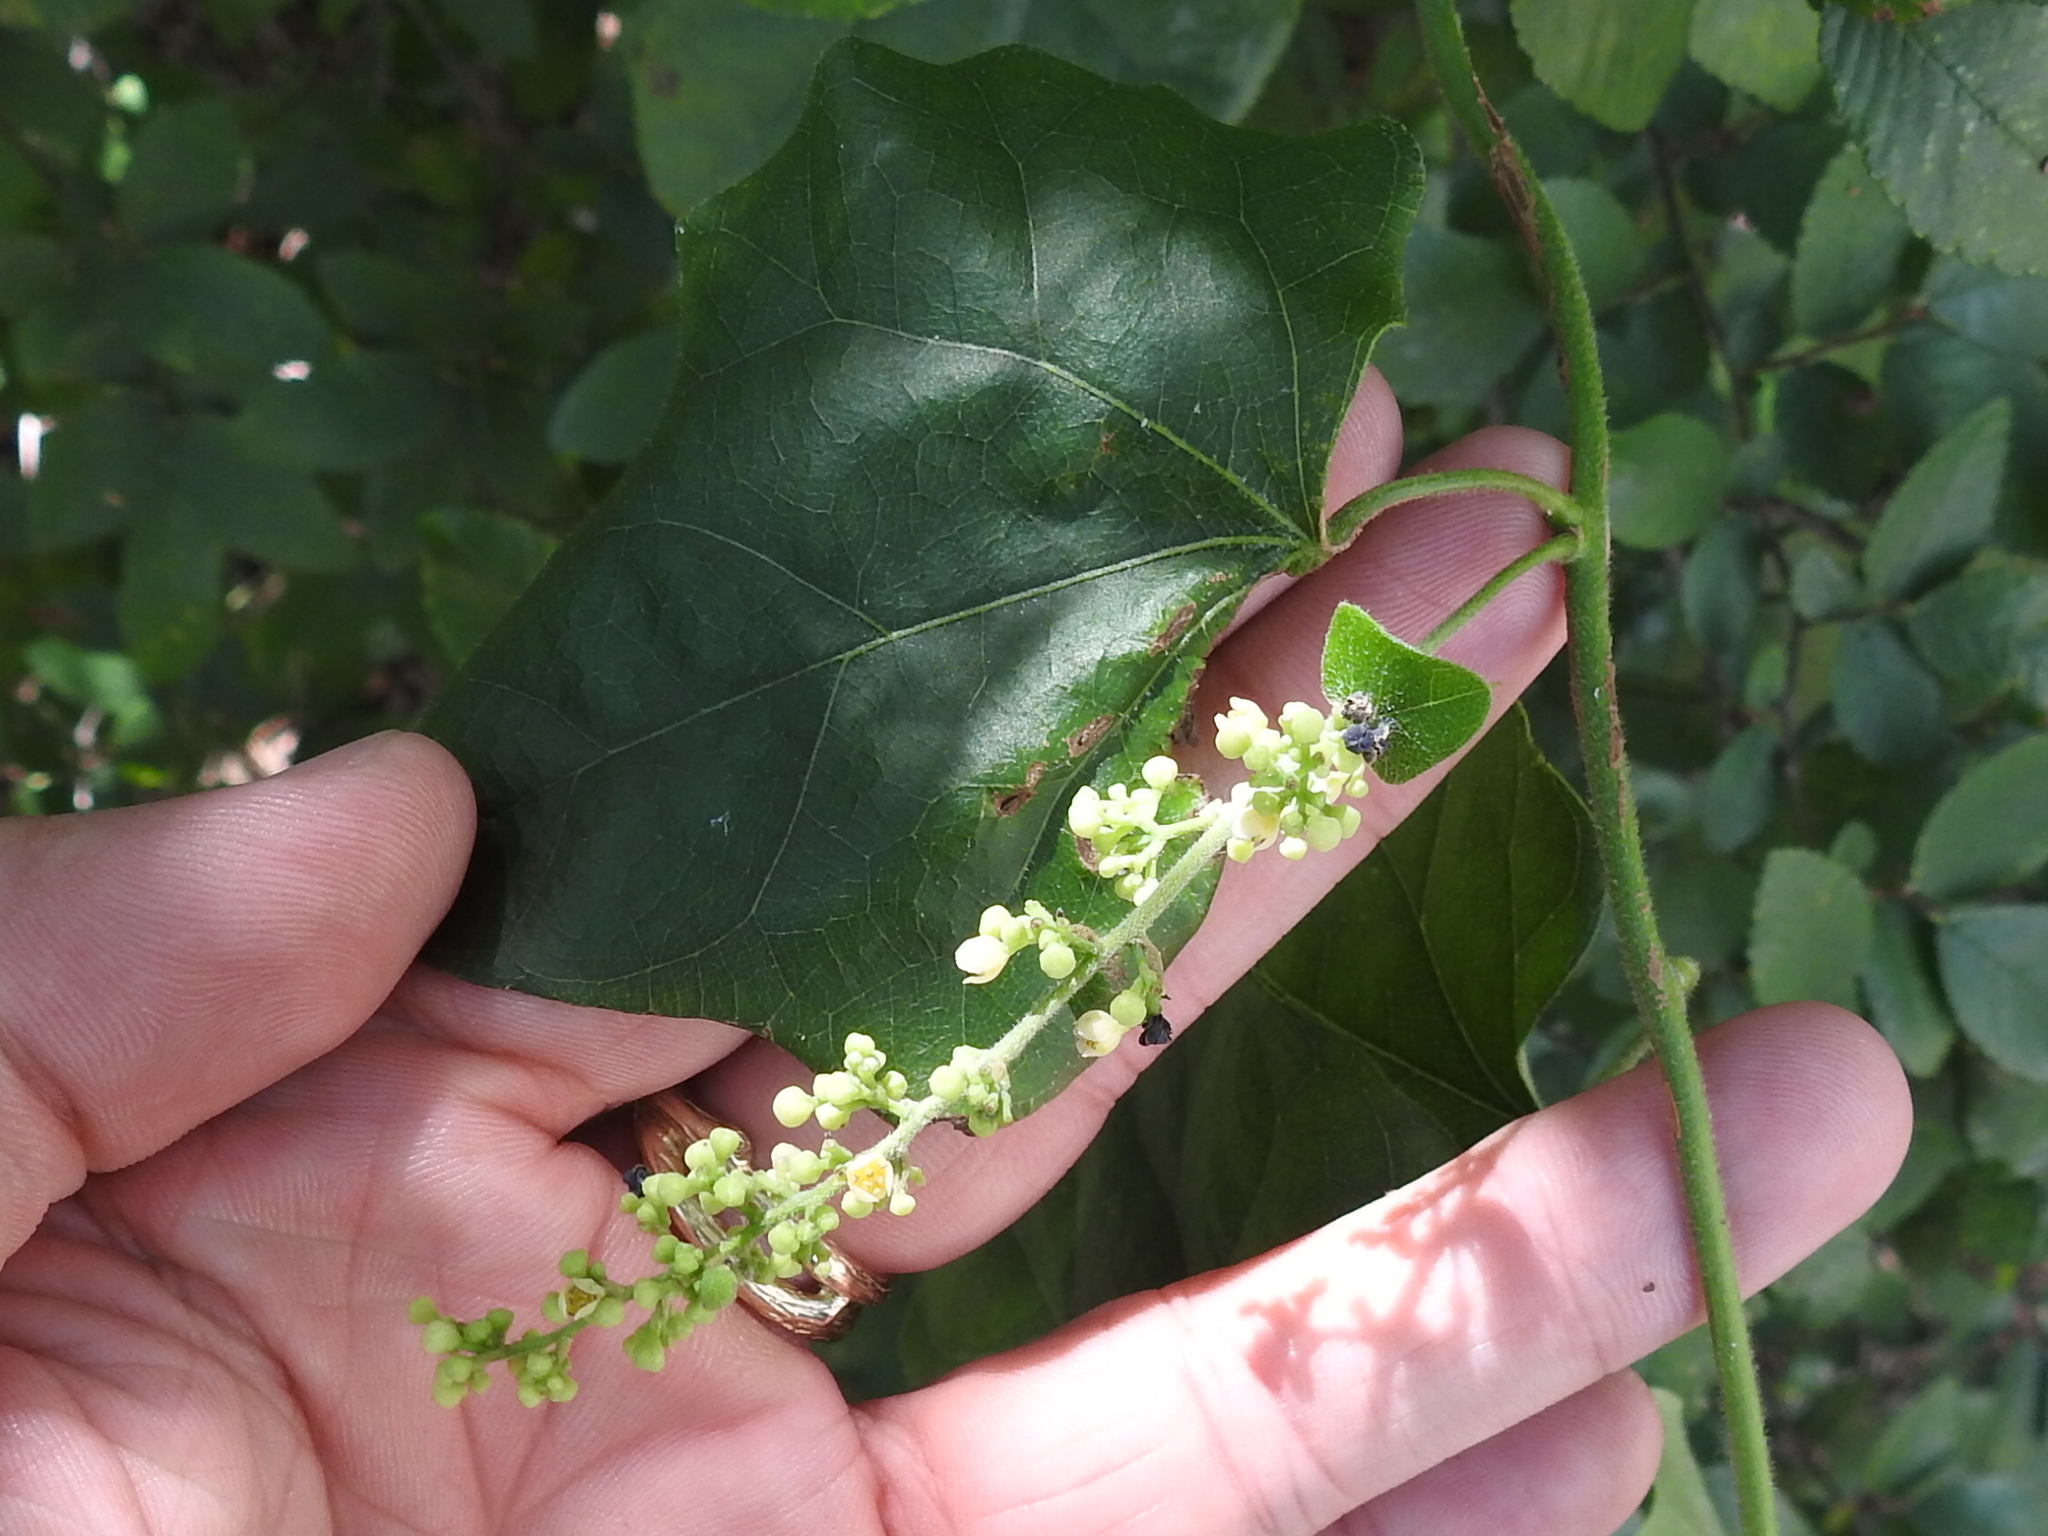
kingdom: Plantae
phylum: Tracheophyta
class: Magnoliopsida
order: Ranunculales
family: Menispermaceae
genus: Cocculus
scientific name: Cocculus carolinus
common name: Carolina moonseed
